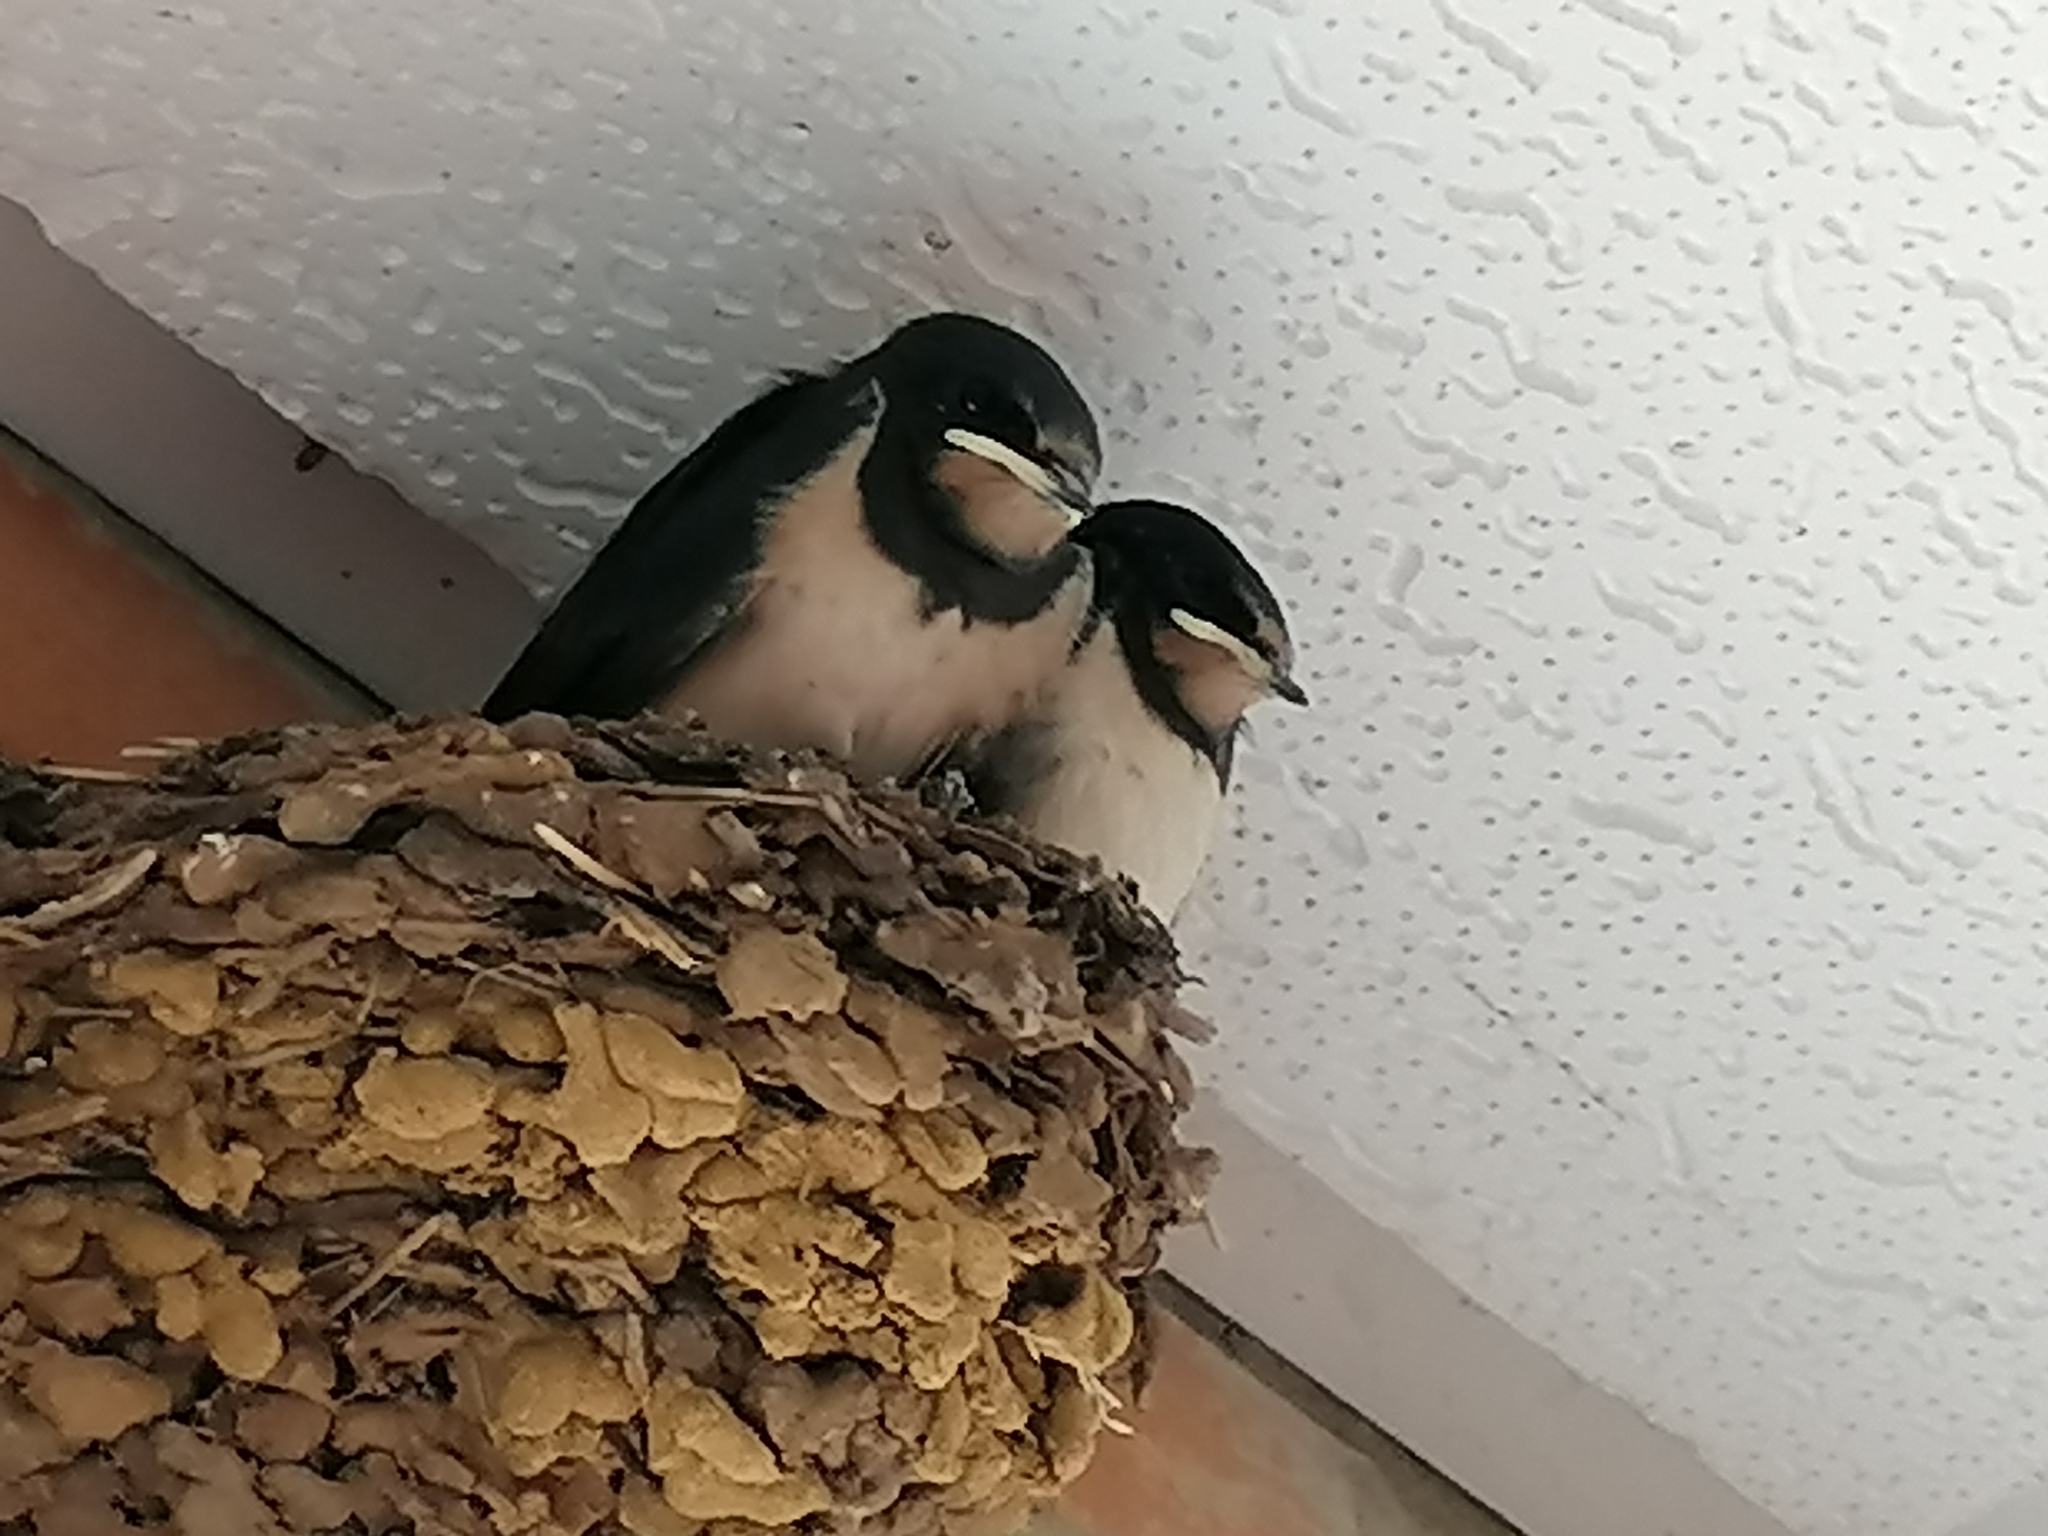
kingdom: Animalia
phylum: Chordata
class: Aves
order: Passeriformes
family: Hirundinidae
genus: Hirundo
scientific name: Hirundo rustica
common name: Barn swallow
